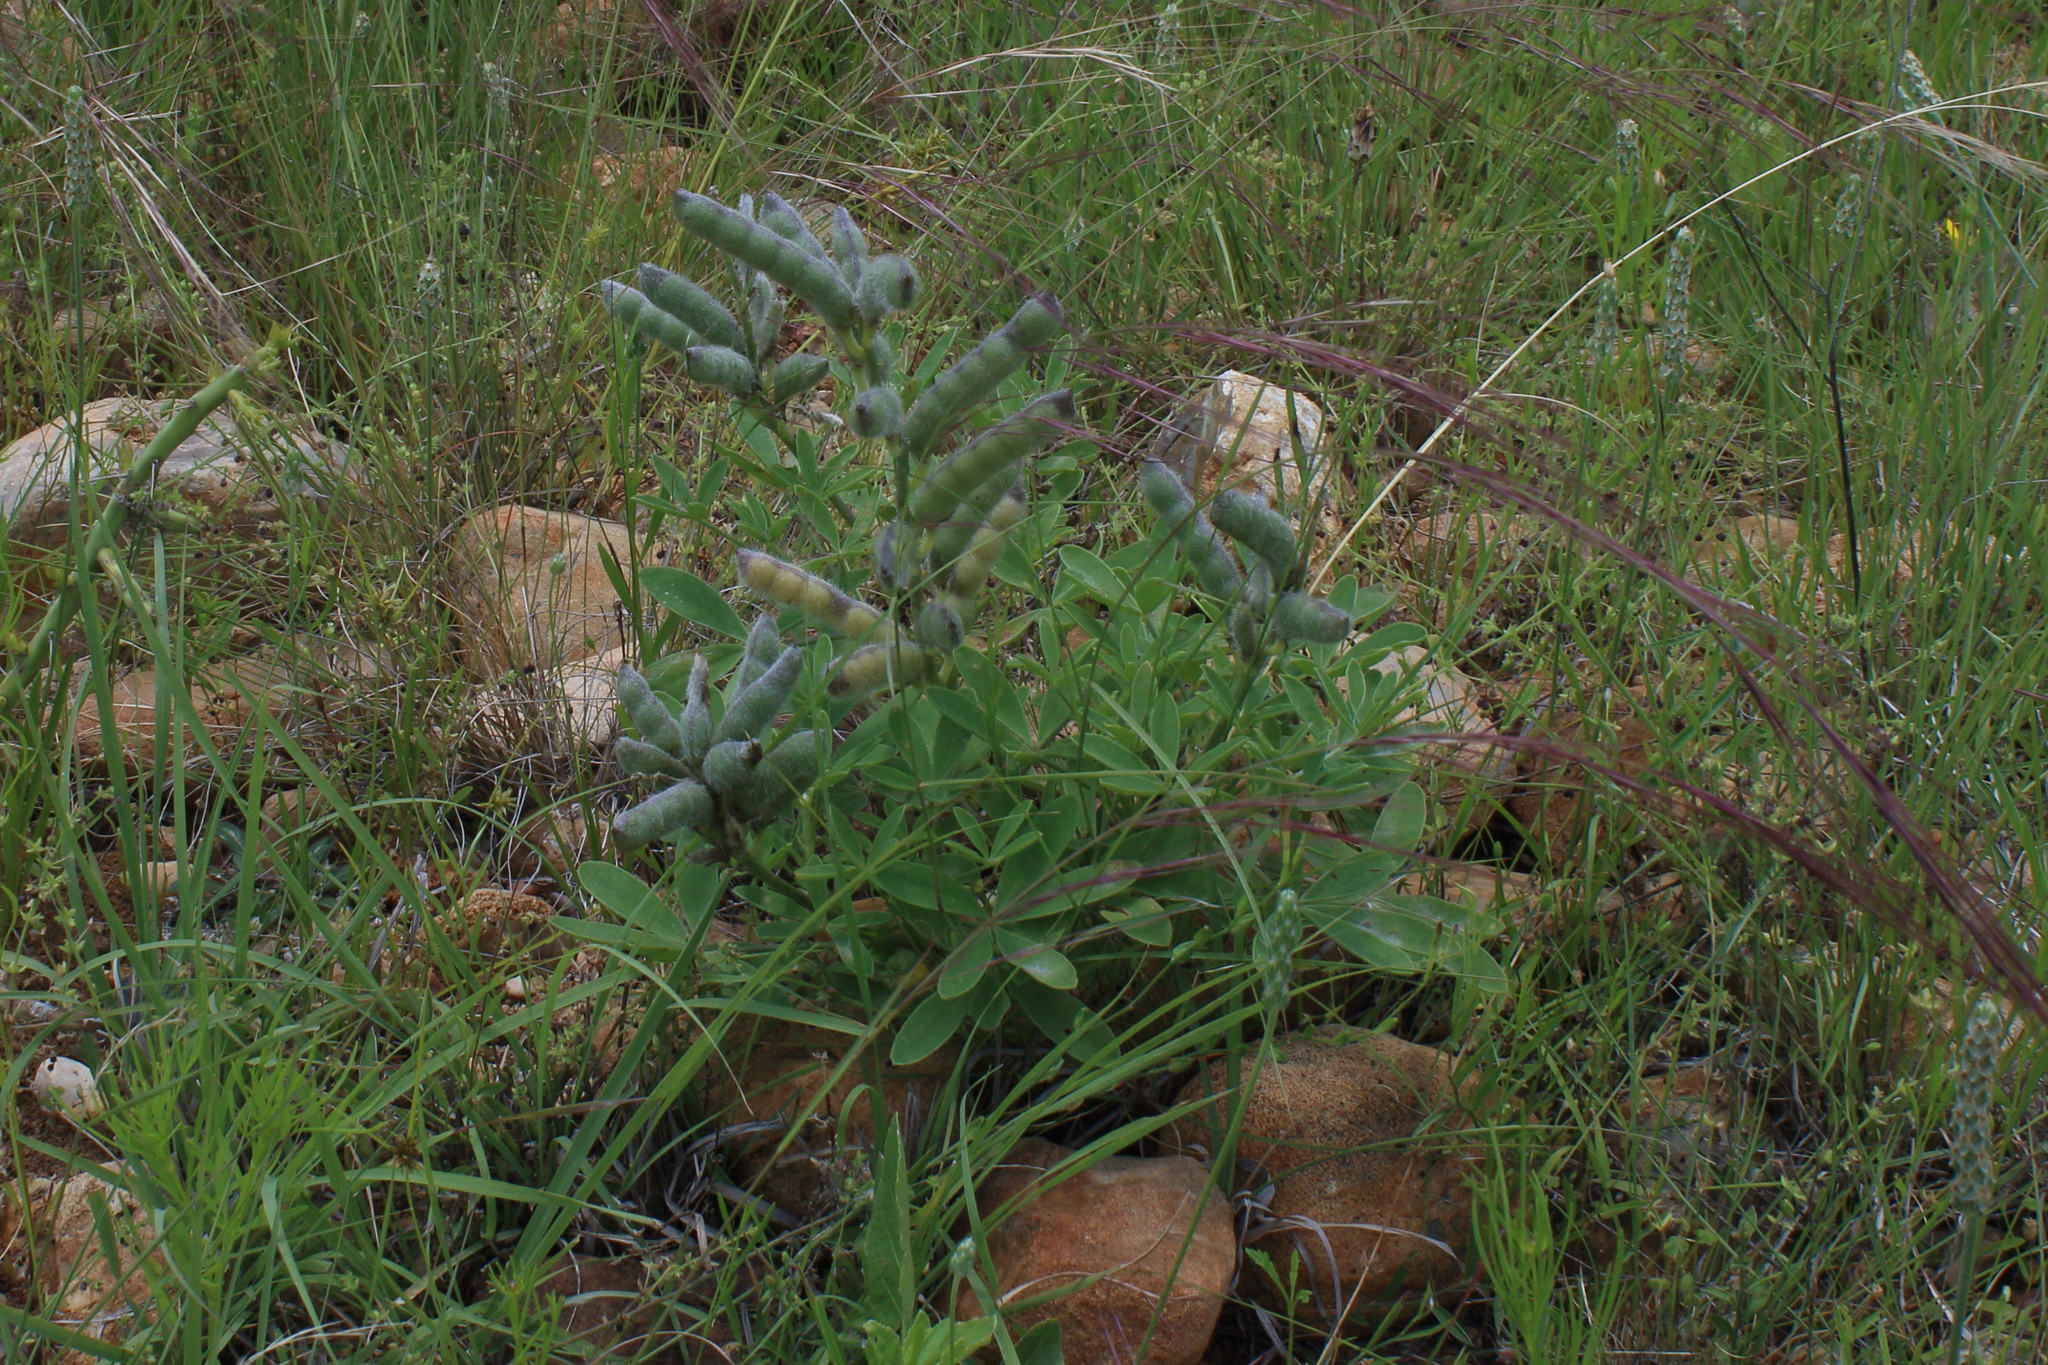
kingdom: Plantae
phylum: Tracheophyta
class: Magnoliopsida
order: Fabales
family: Fabaceae
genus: Lupinus
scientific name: Lupinus texensis
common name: Texas bluebonnet
